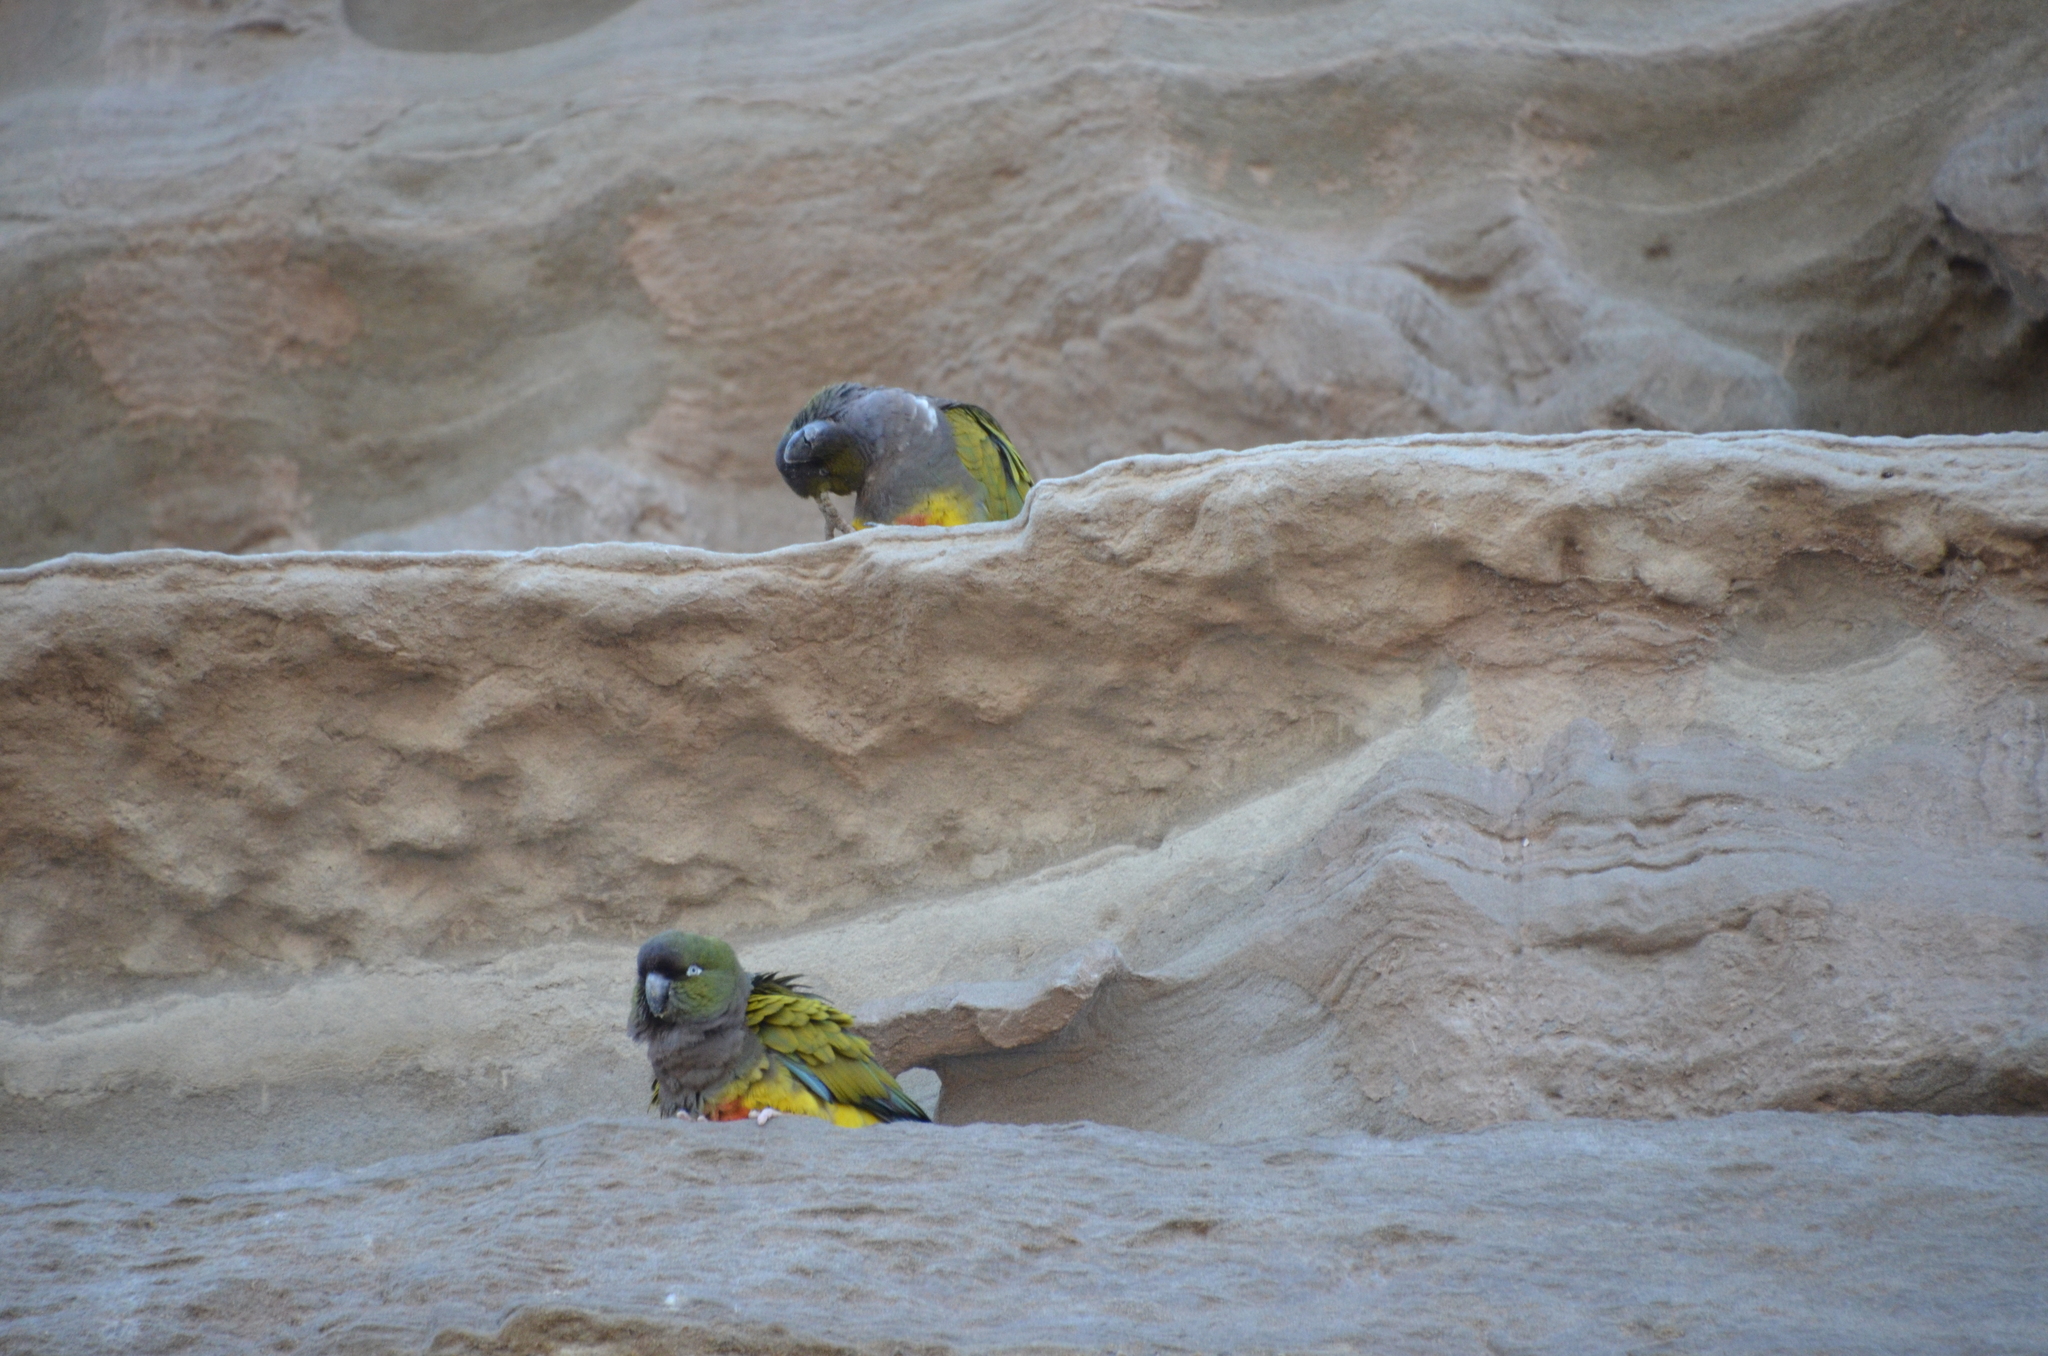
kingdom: Animalia
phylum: Chordata
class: Aves
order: Psittaciformes
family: Psittacidae
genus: Cyanoliseus
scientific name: Cyanoliseus patagonus
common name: Burrowing parrot
